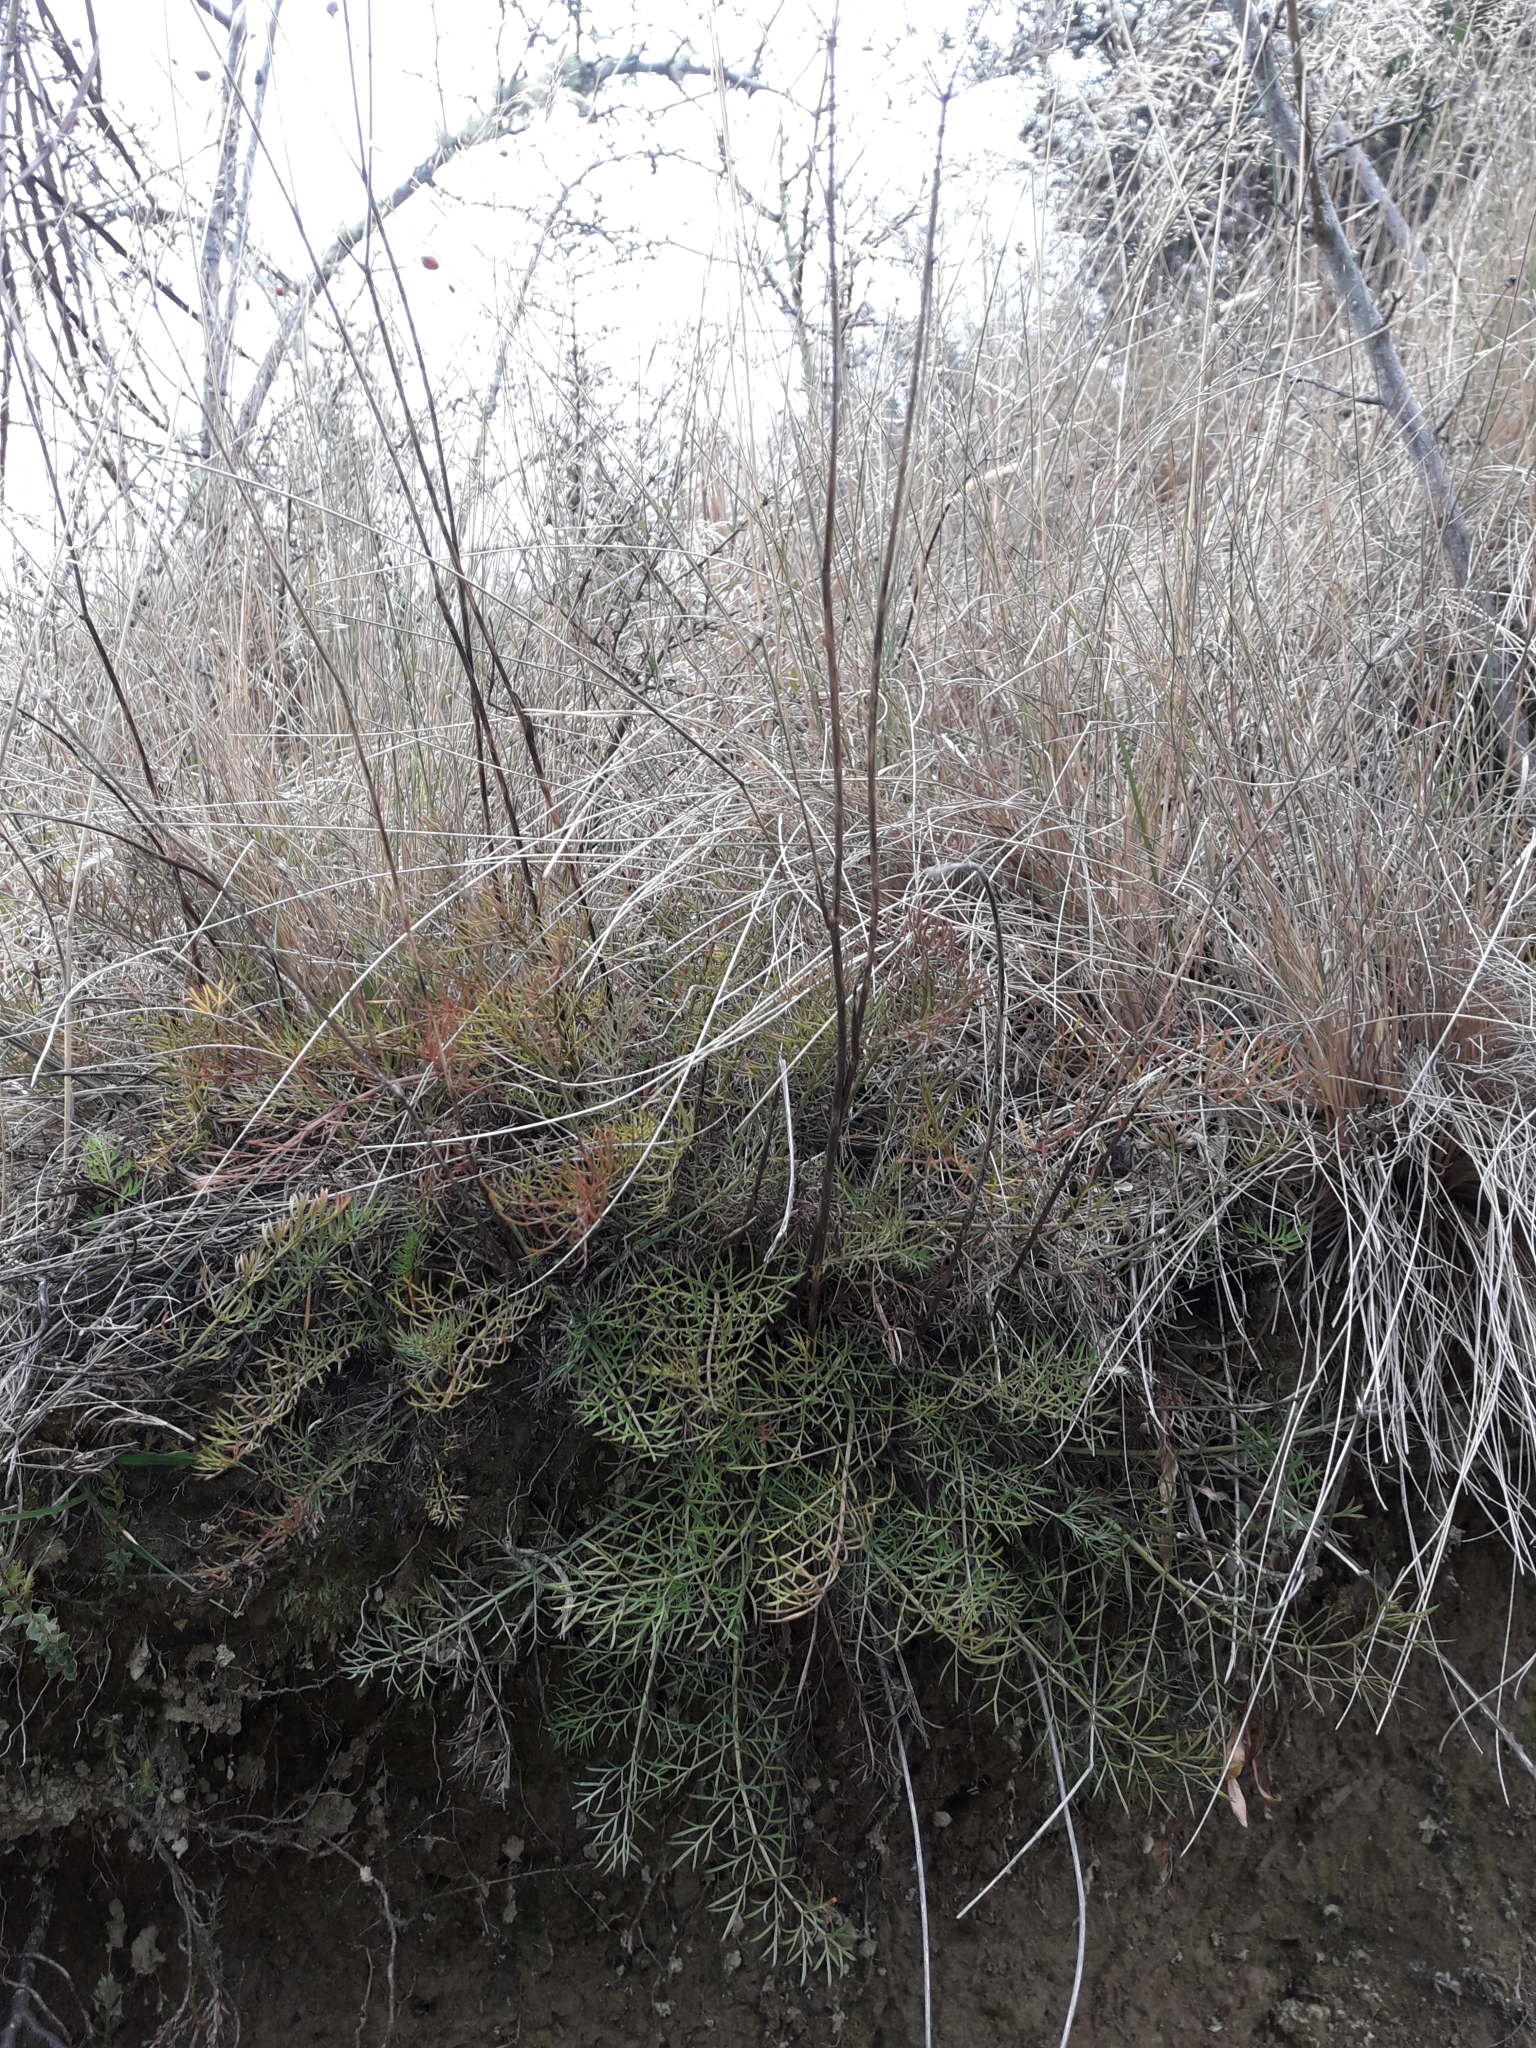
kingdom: Plantae
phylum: Tracheophyta
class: Magnoliopsida
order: Apiales
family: Apiaceae
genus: Anisotome
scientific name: Anisotome brevistylis
